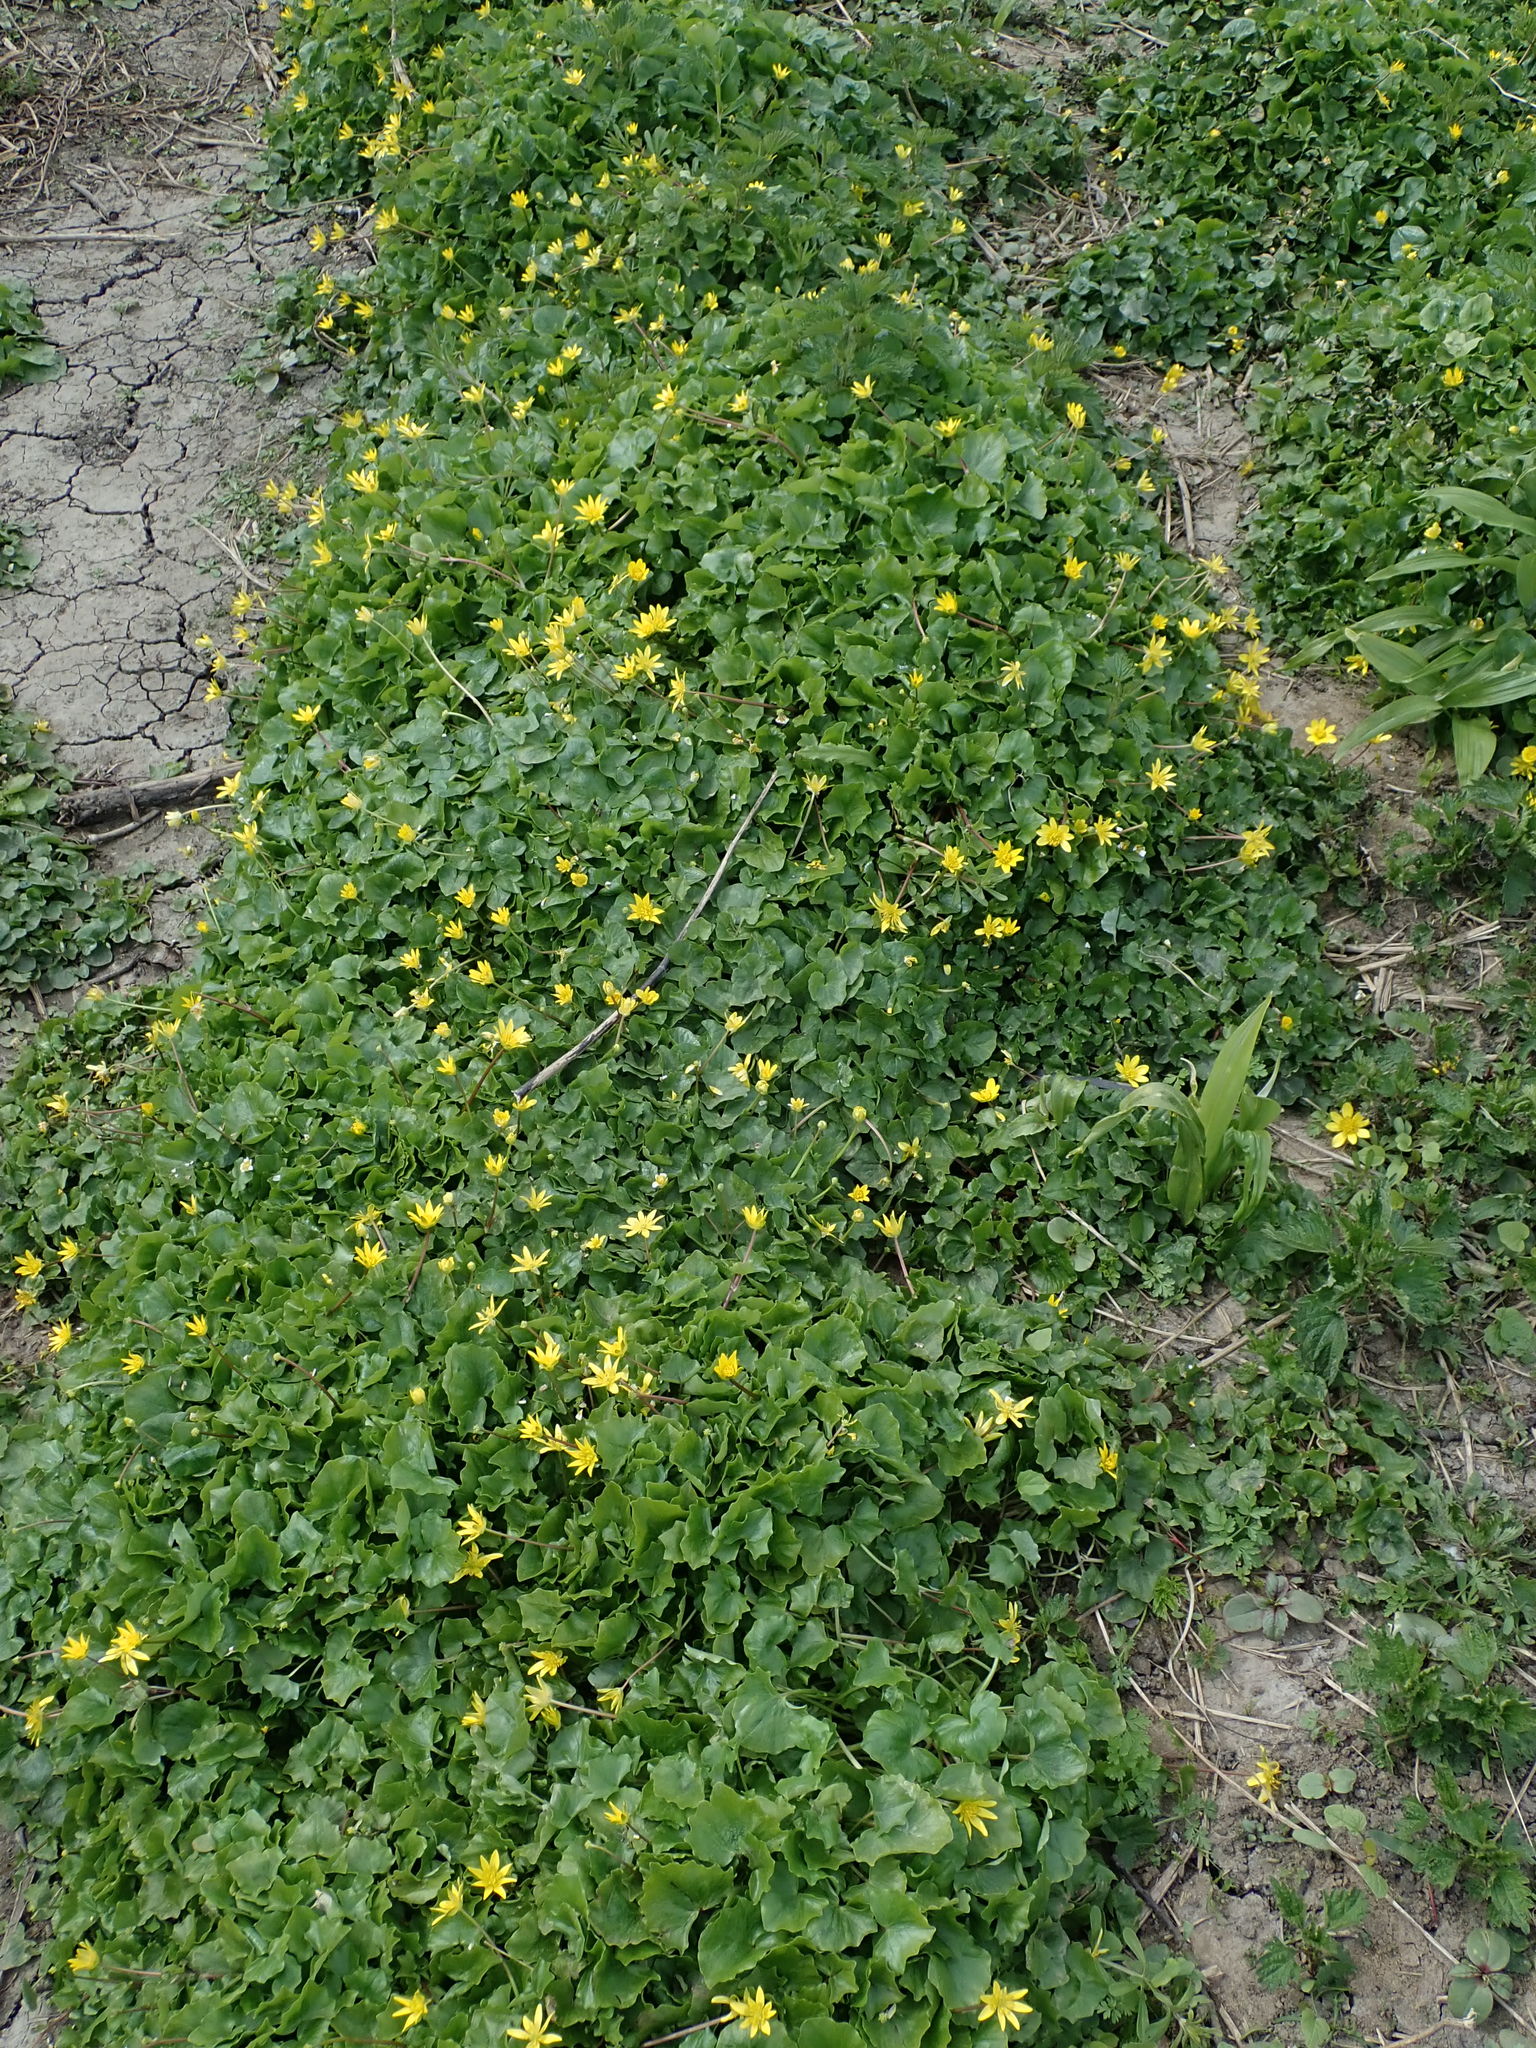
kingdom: Plantae
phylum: Tracheophyta
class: Magnoliopsida
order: Ranunculales
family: Ranunculaceae
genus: Ficaria
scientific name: Ficaria verna
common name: Lesser celandine
